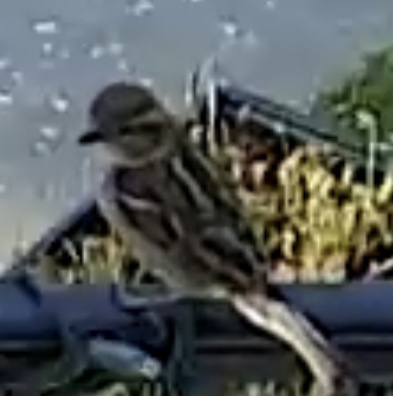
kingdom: Animalia
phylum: Chordata
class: Aves
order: Passeriformes
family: Passeridae
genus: Passer
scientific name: Passer domesticus
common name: House sparrow
